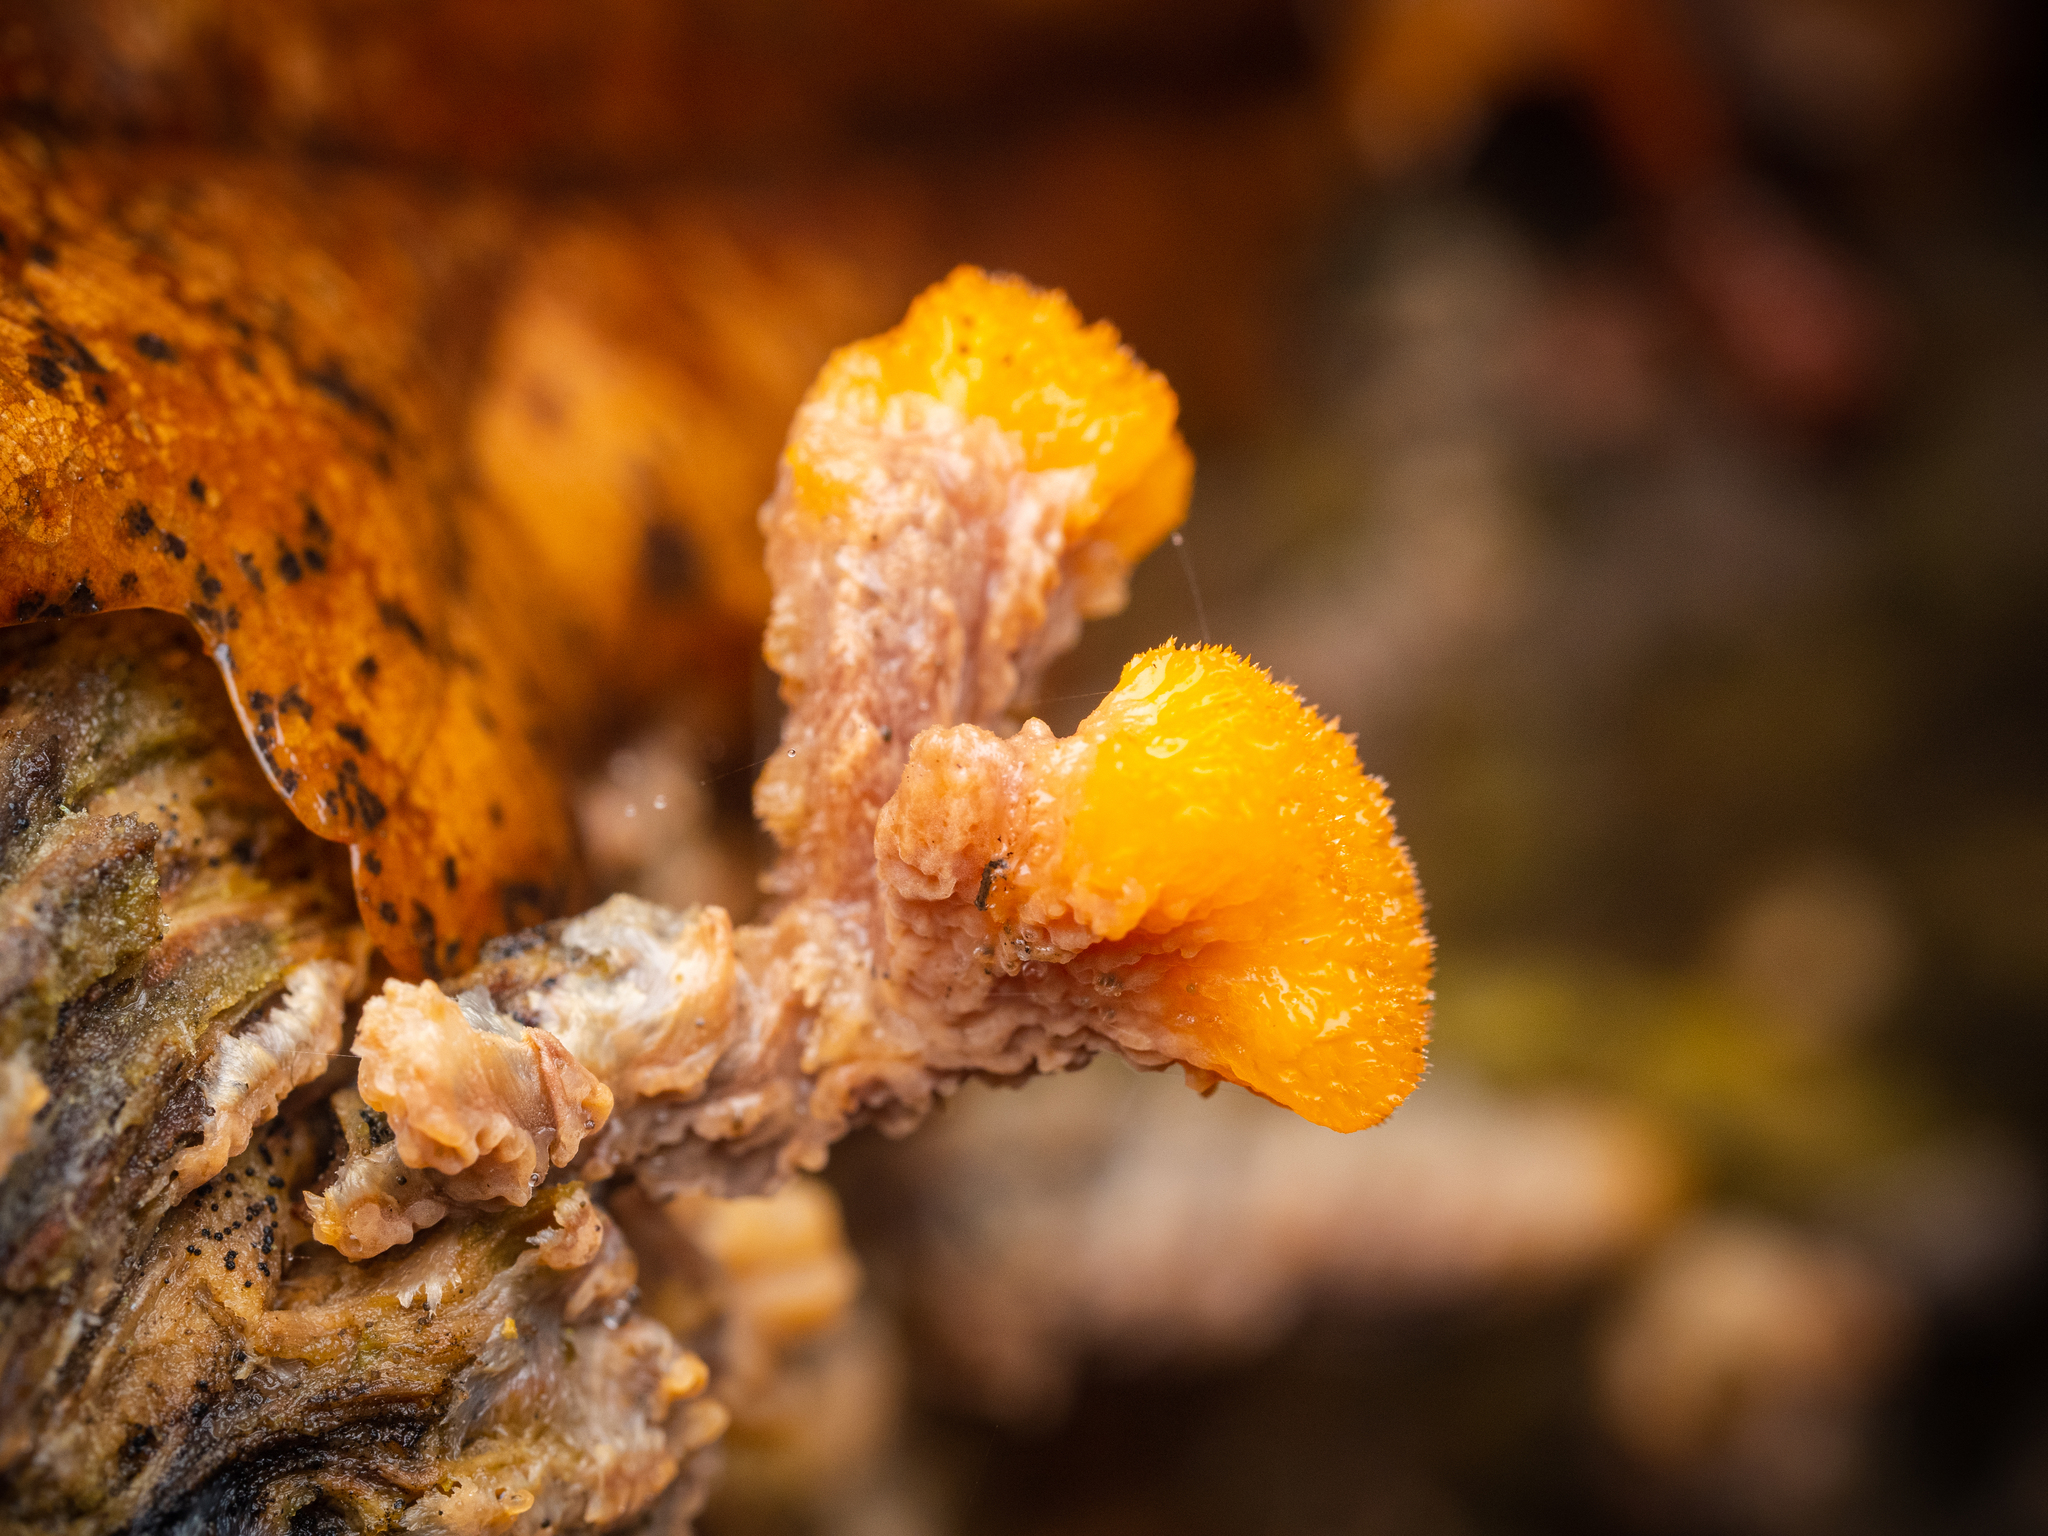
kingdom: Fungi
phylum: Basidiomycota
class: Agaricomycetes
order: Polyporales
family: Meruliaceae
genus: Phlebia
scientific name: Phlebia radiata
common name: Wrinkled crust
